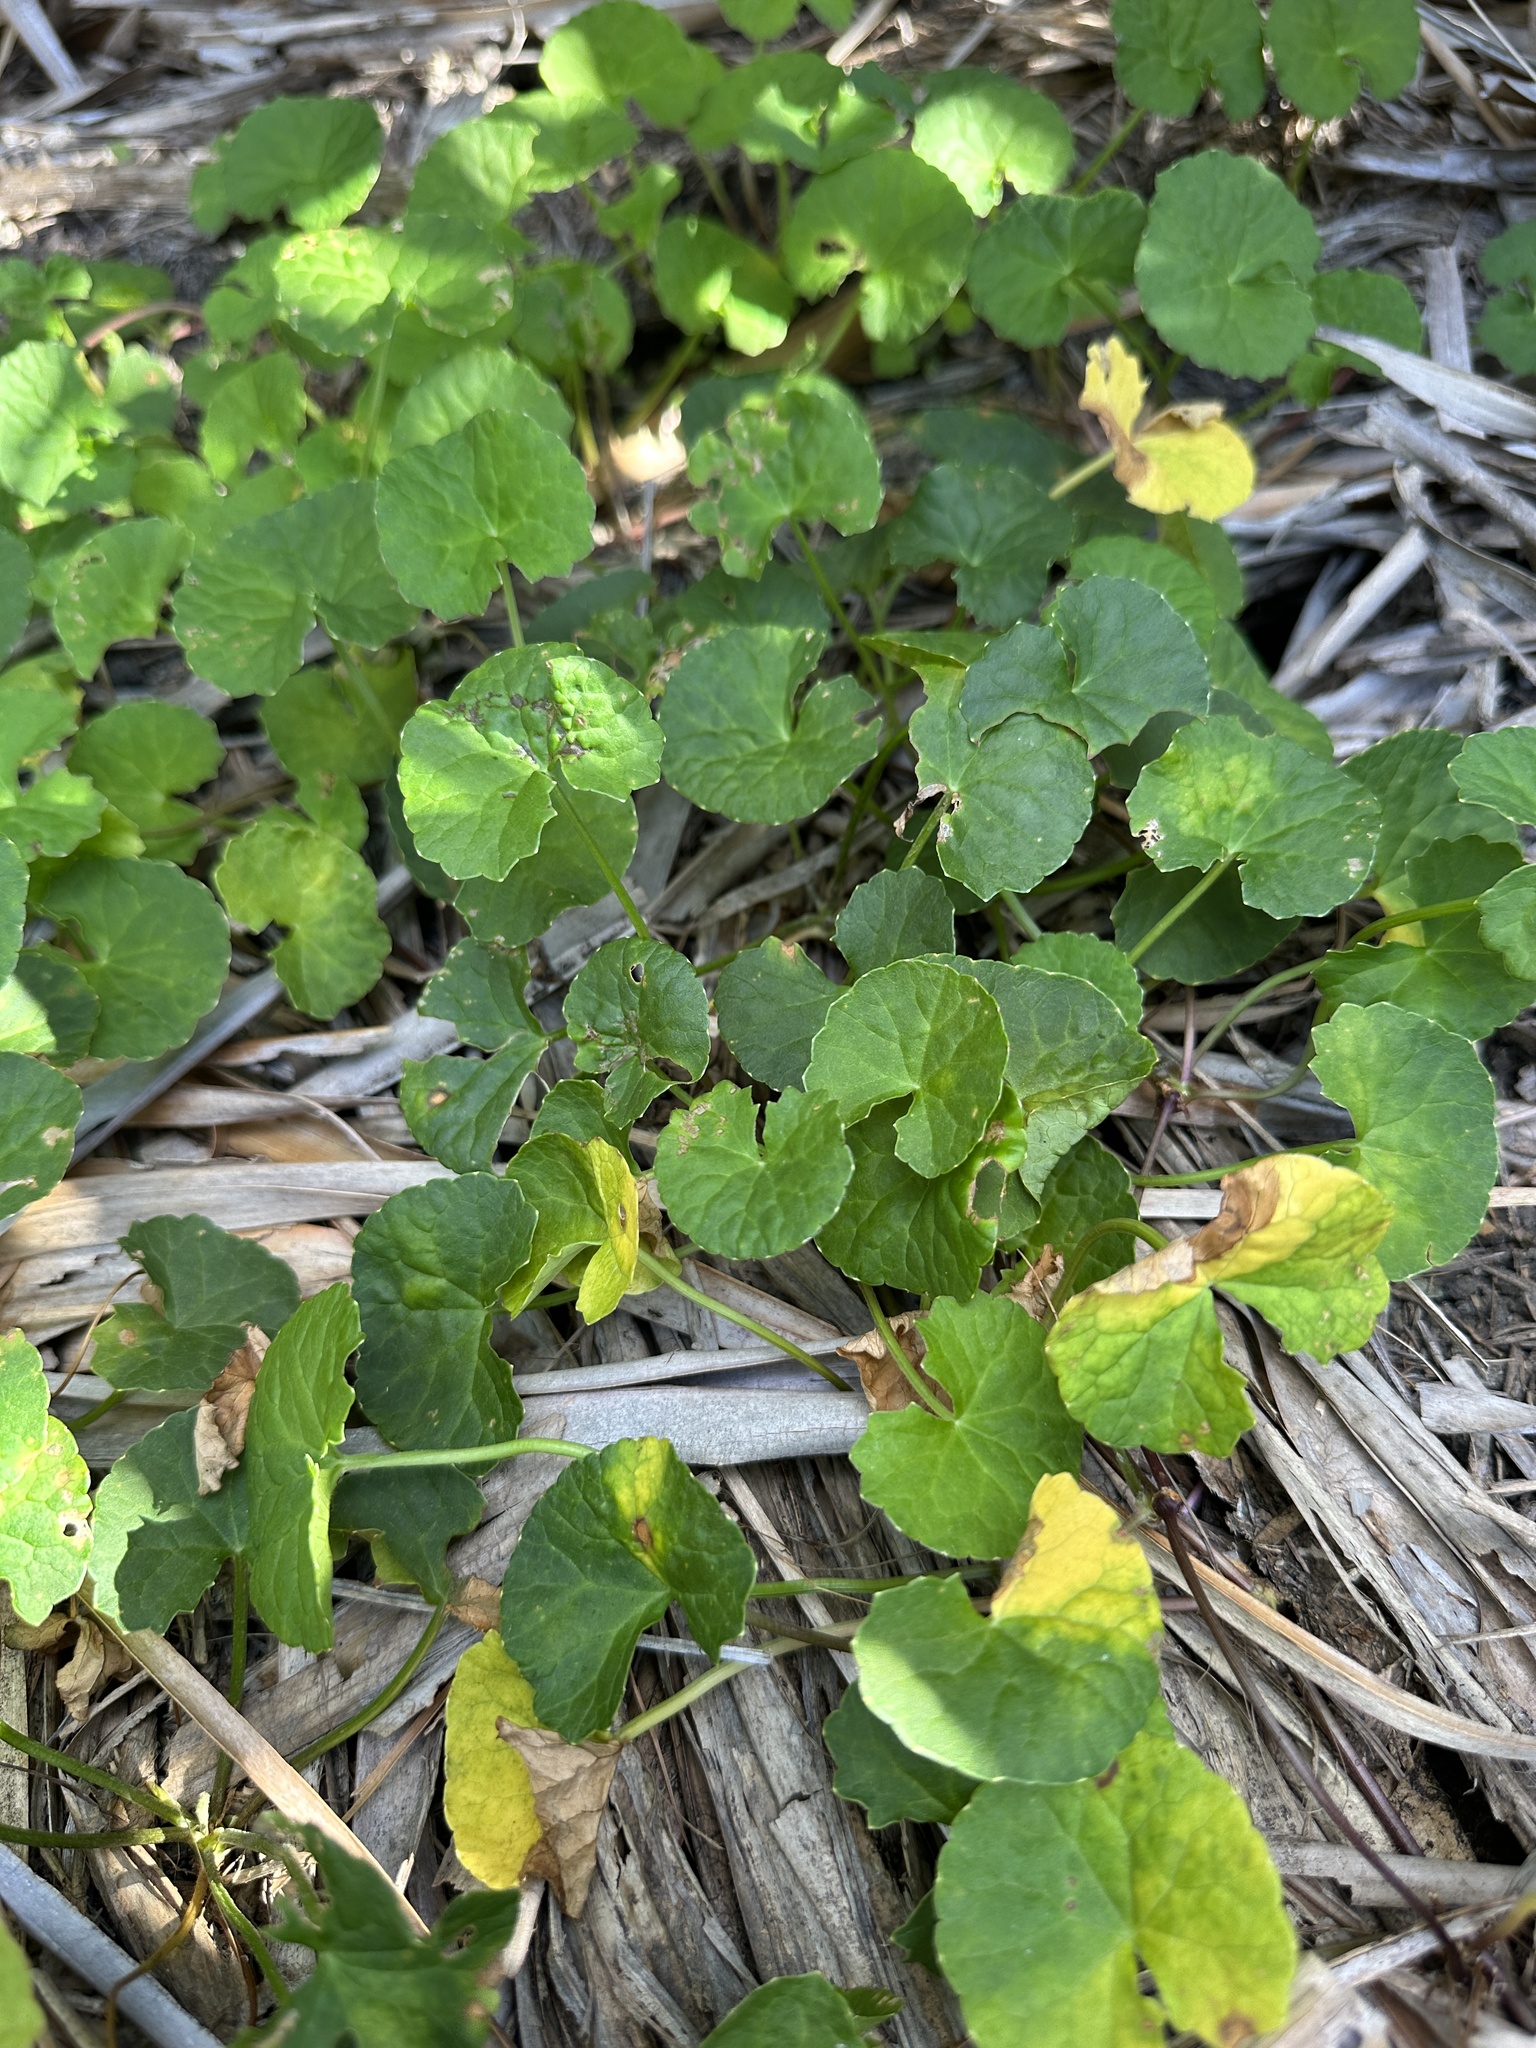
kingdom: Plantae
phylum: Tracheophyta
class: Magnoliopsida
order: Apiales
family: Apiaceae
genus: Centella
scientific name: Centella asiatica
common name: Spadeleaf
